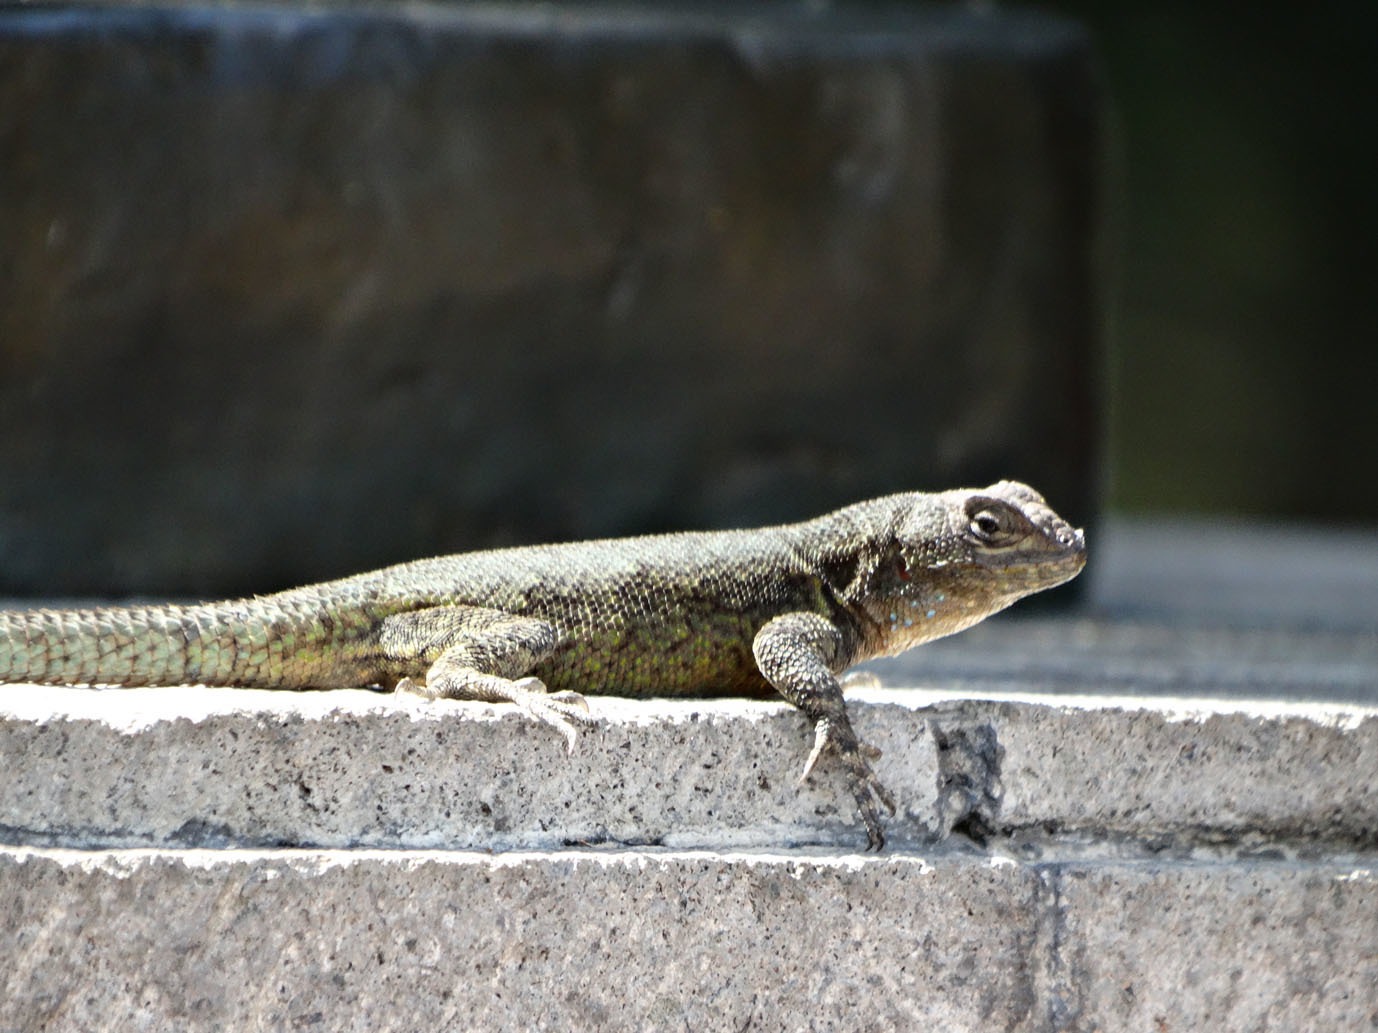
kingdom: Animalia
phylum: Chordata
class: Squamata
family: Phrynosomatidae
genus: Sceloporus
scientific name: Sceloporus grammicus
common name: Mesquite lizard
